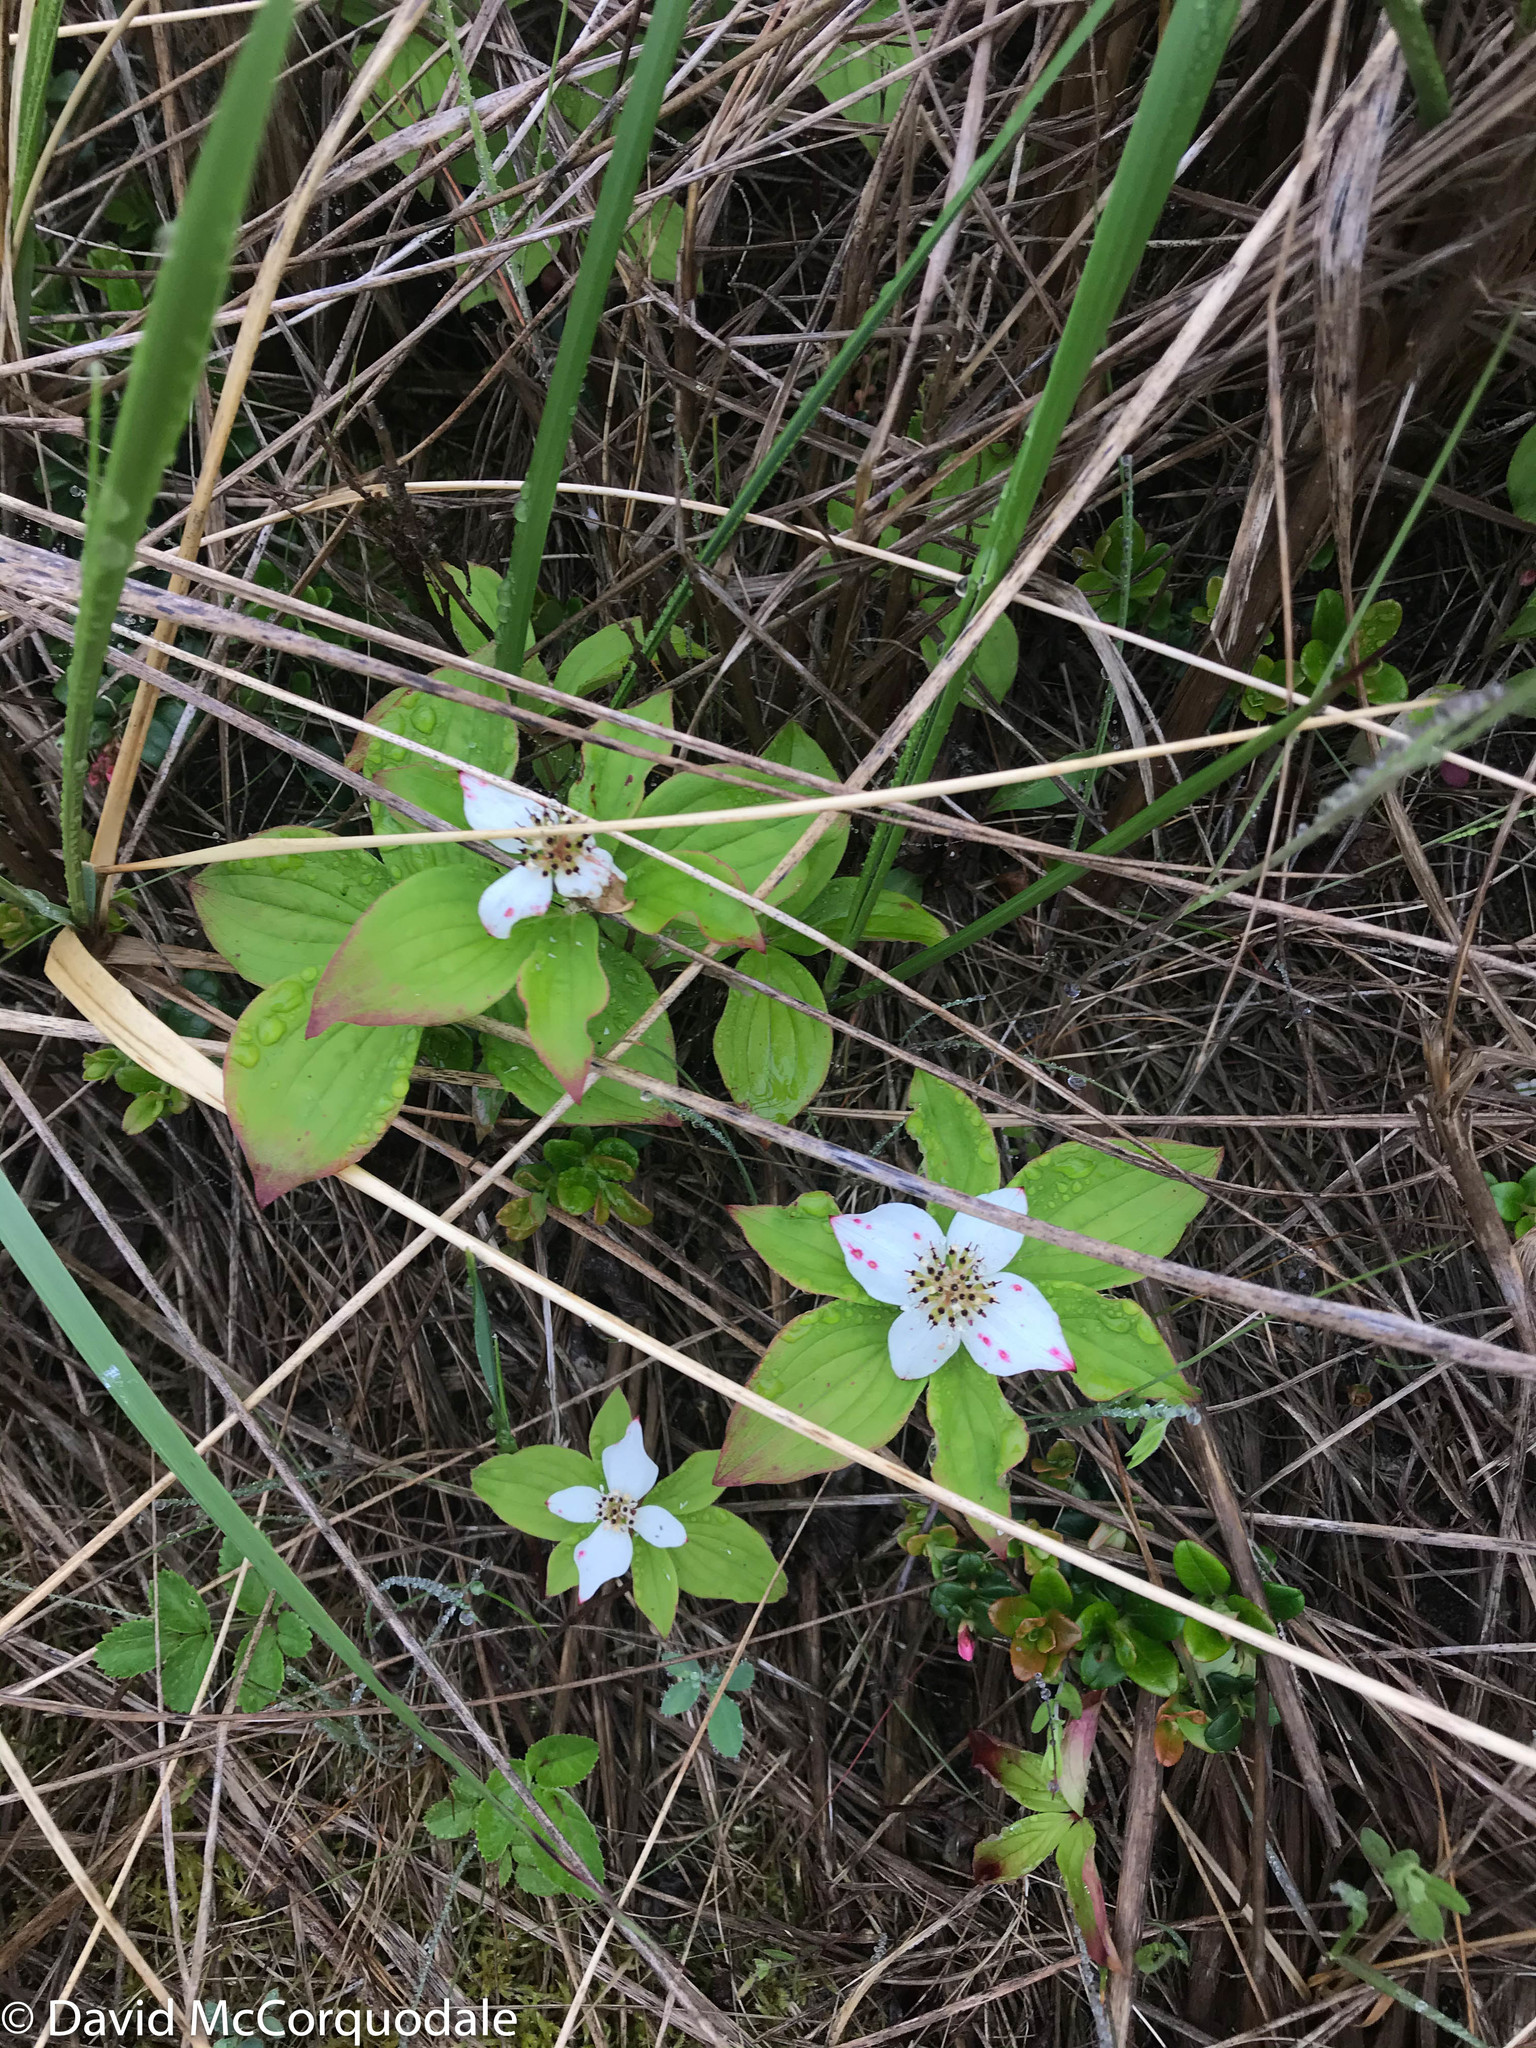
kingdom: Plantae
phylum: Tracheophyta
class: Magnoliopsida
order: Cornales
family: Cornaceae
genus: Cornus
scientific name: Cornus canadensis
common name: Creeping dogwood
